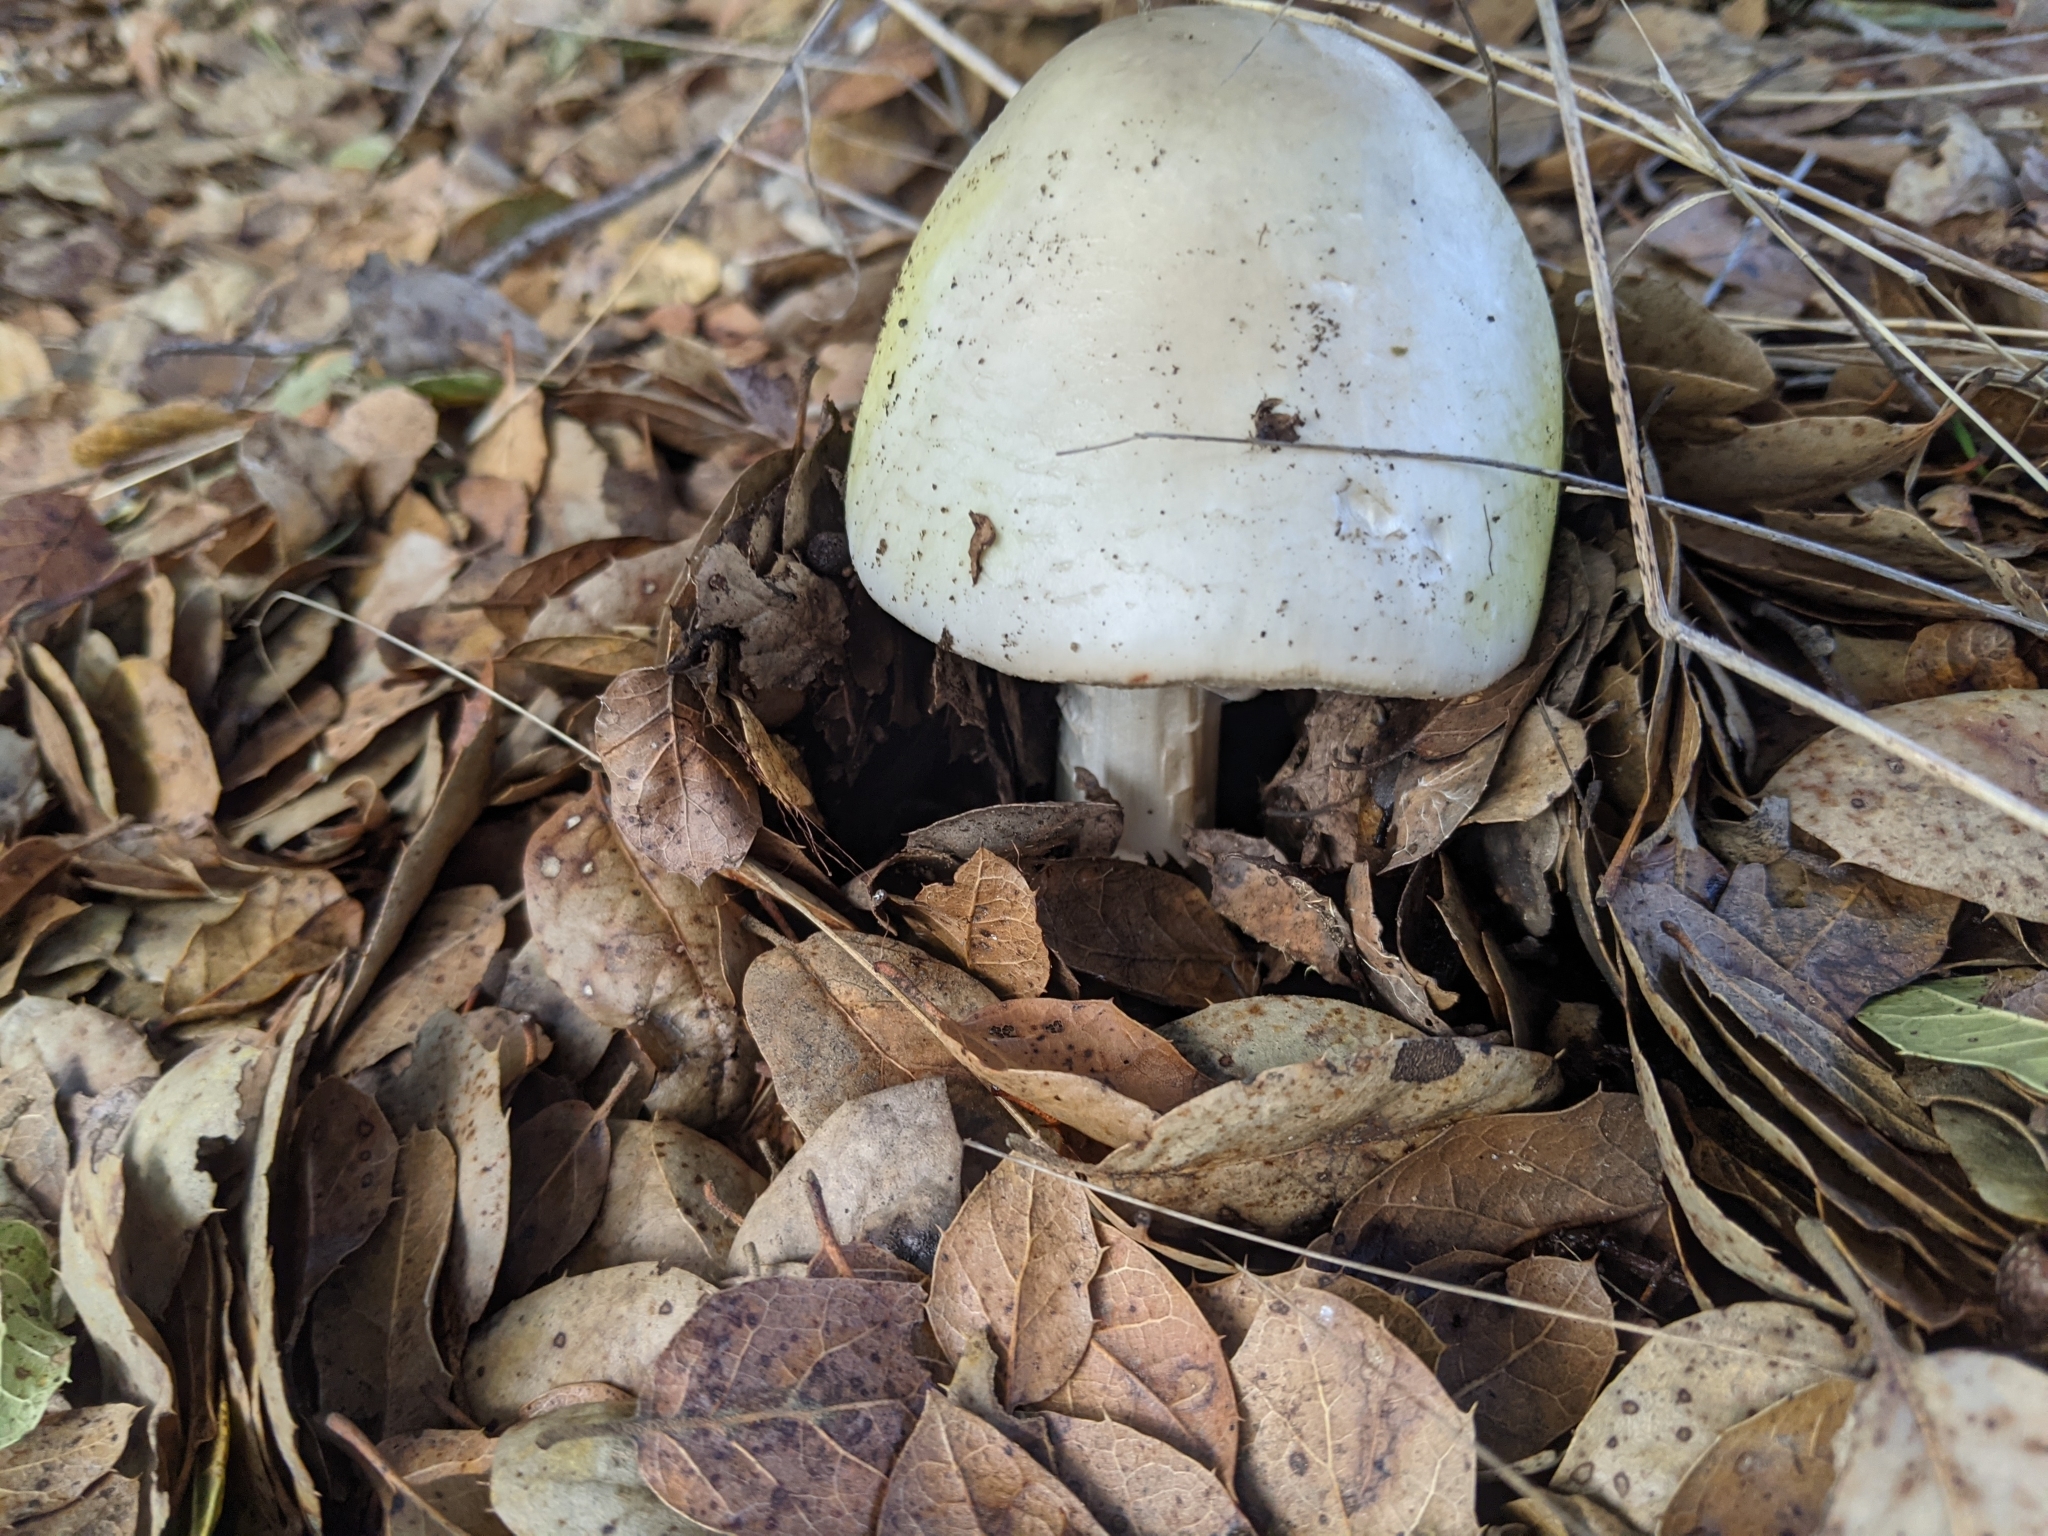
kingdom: Fungi
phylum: Basidiomycota
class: Agaricomycetes
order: Agaricales
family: Amanitaceae
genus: Amanita
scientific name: Amanita phalloides
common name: Death cap
